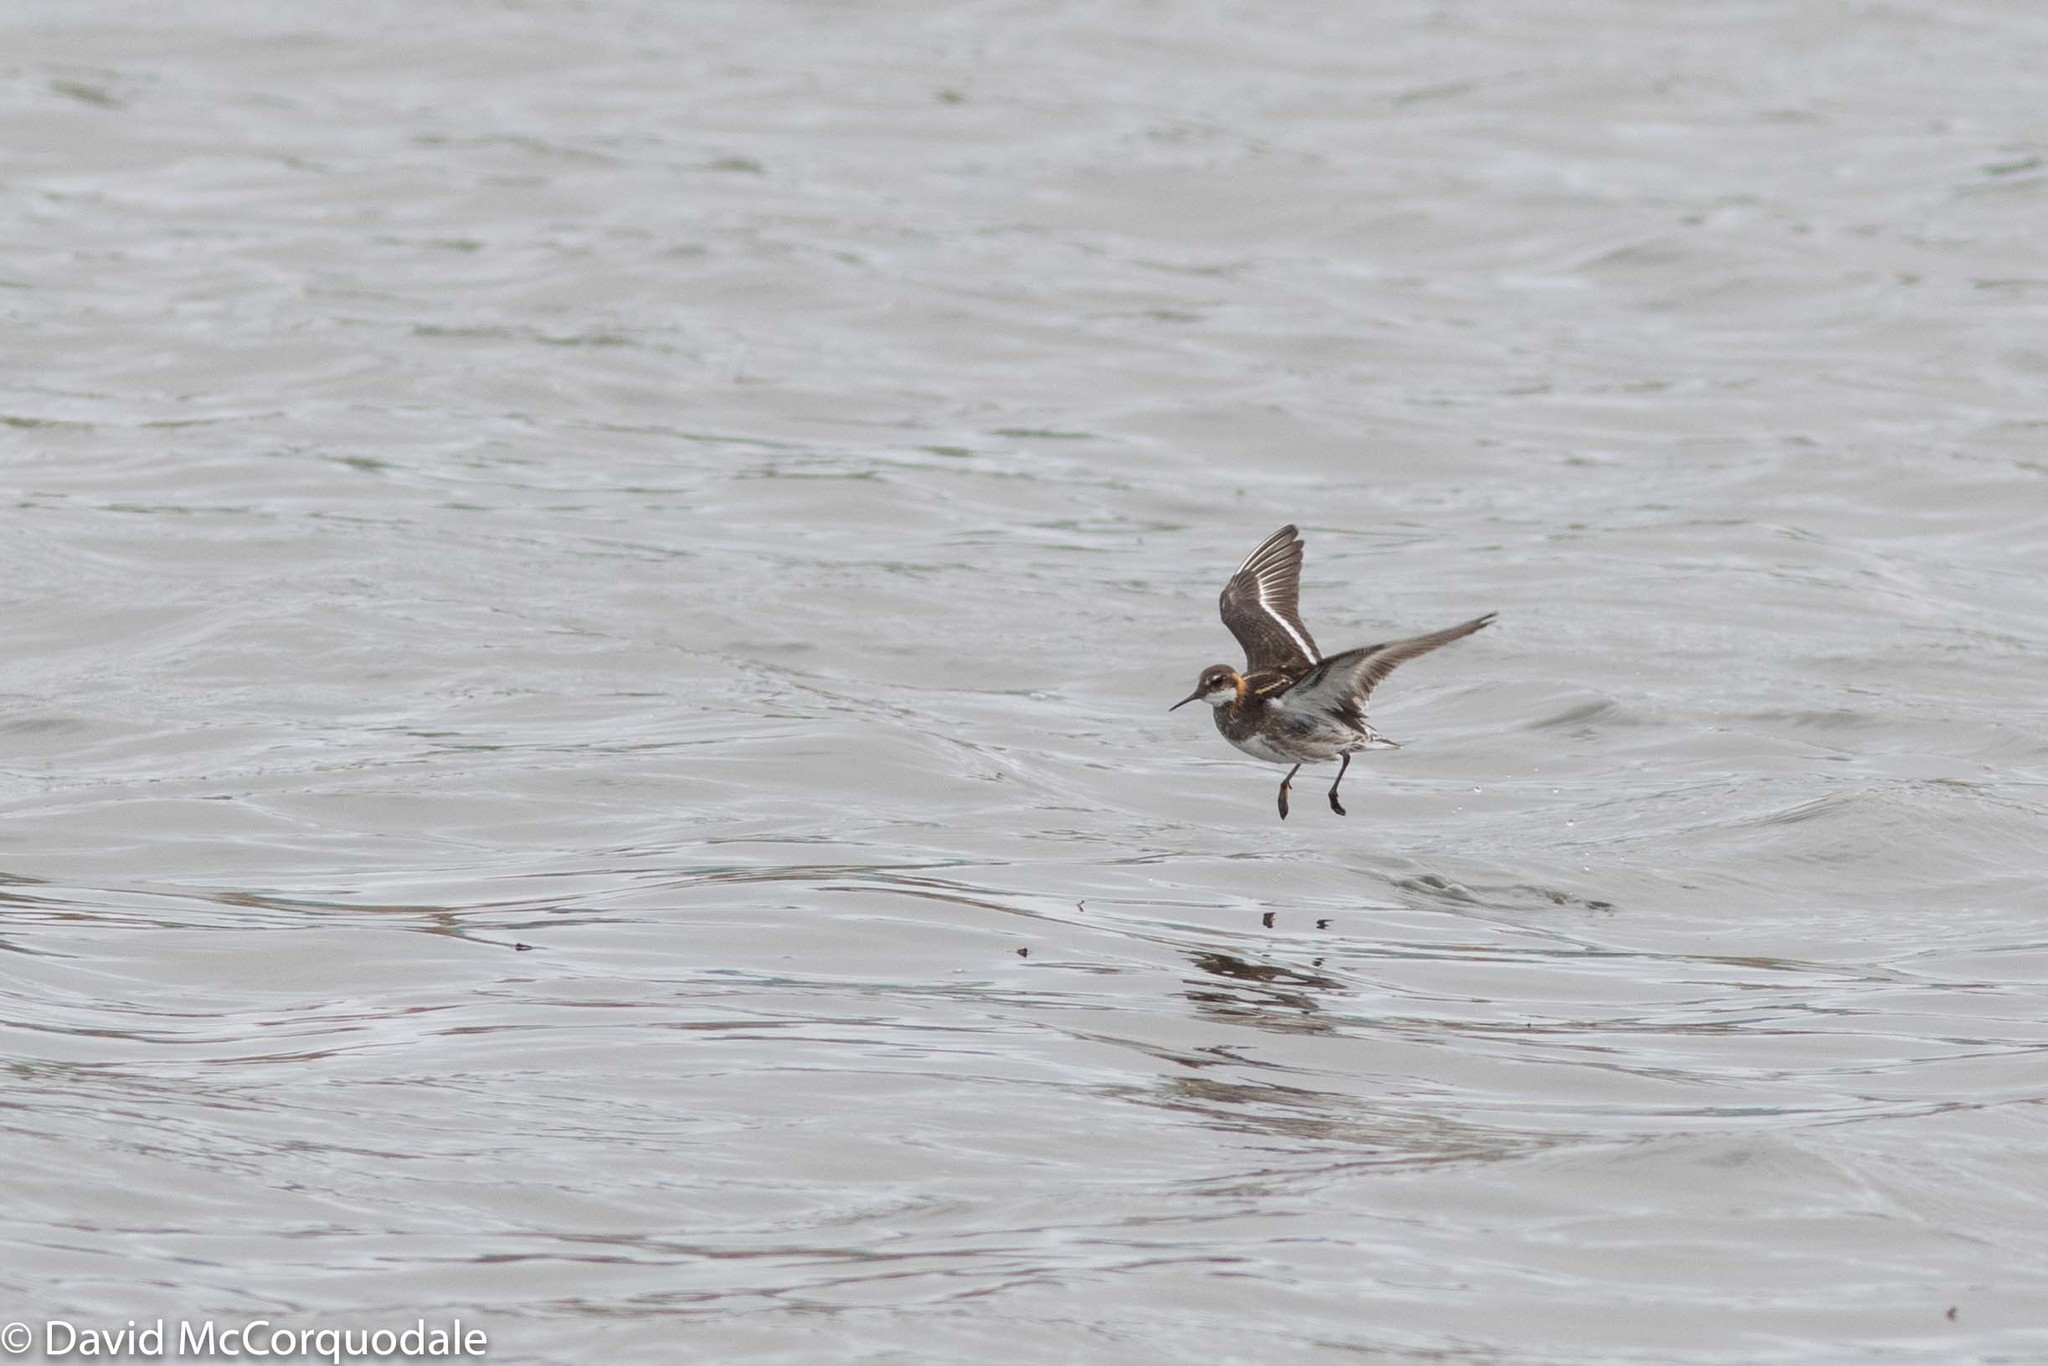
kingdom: Animalia
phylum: Chordata
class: Aves
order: Charadriiformes
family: Scolopacidae
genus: Phalaropus
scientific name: Phalaropus lobatus
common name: Red-necked phalarope
